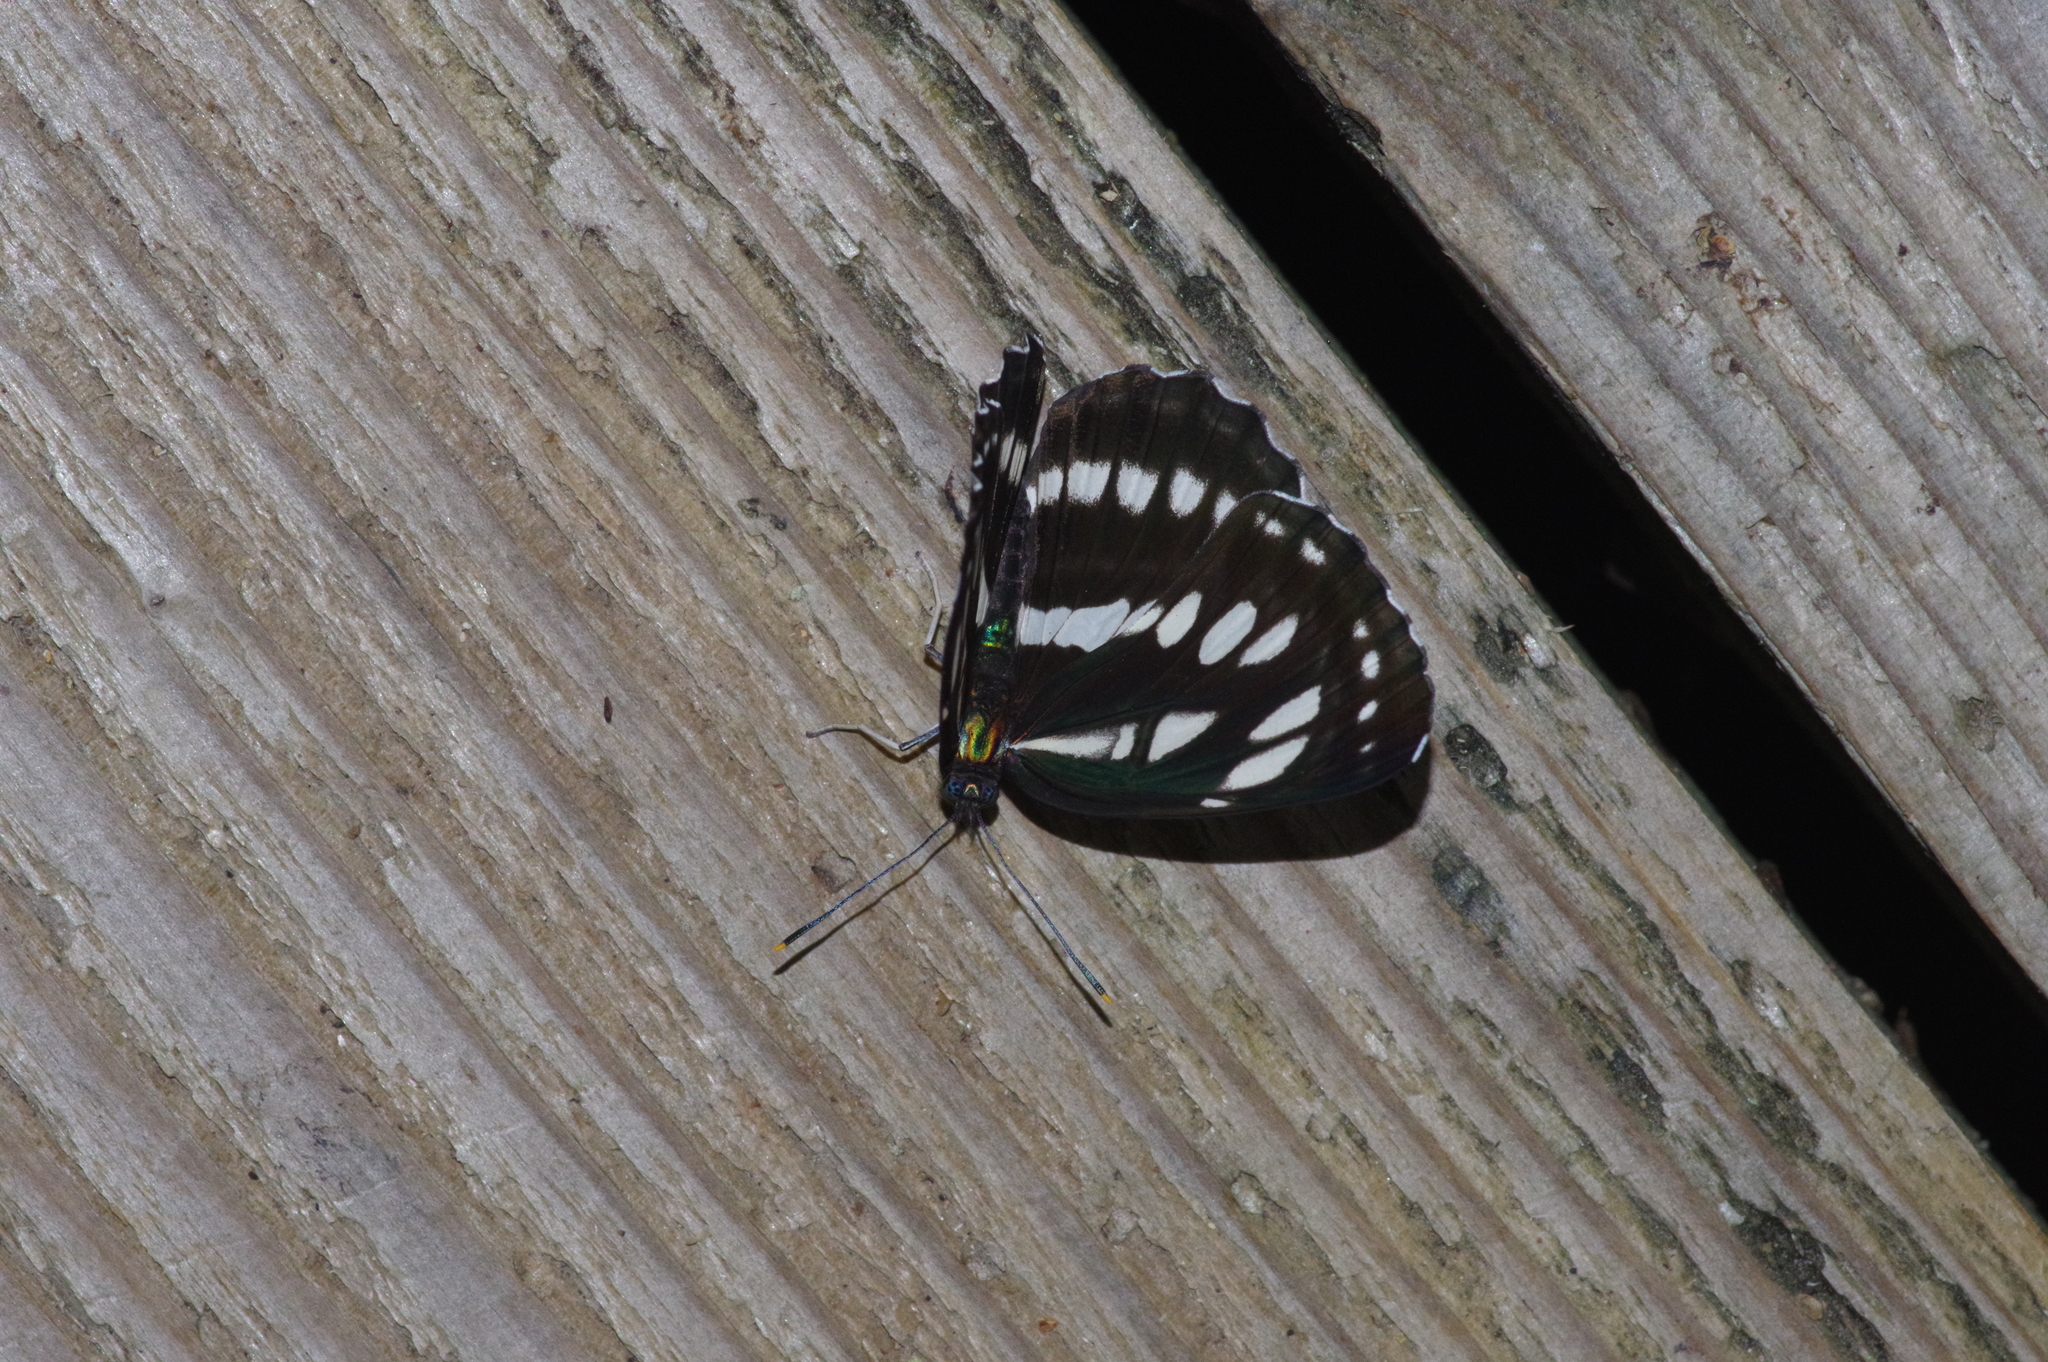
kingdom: Animalia
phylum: Arthropoda
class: Insecta
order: Lepidoptera
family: Nymphalidae
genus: Neptis
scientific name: Neptis hylas
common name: Common sailer
